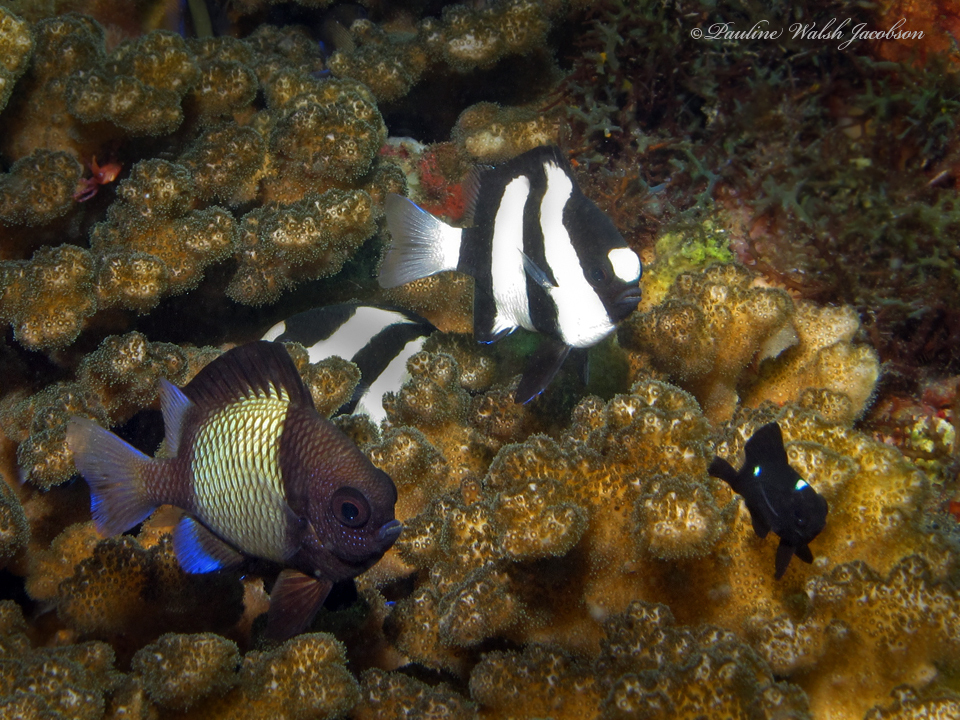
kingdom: Animalia
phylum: Chordata
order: Perciformes
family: Pomacentridae
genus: Dascyllus
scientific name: Dascyllus trimaculatus
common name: Threespot dascyllus
